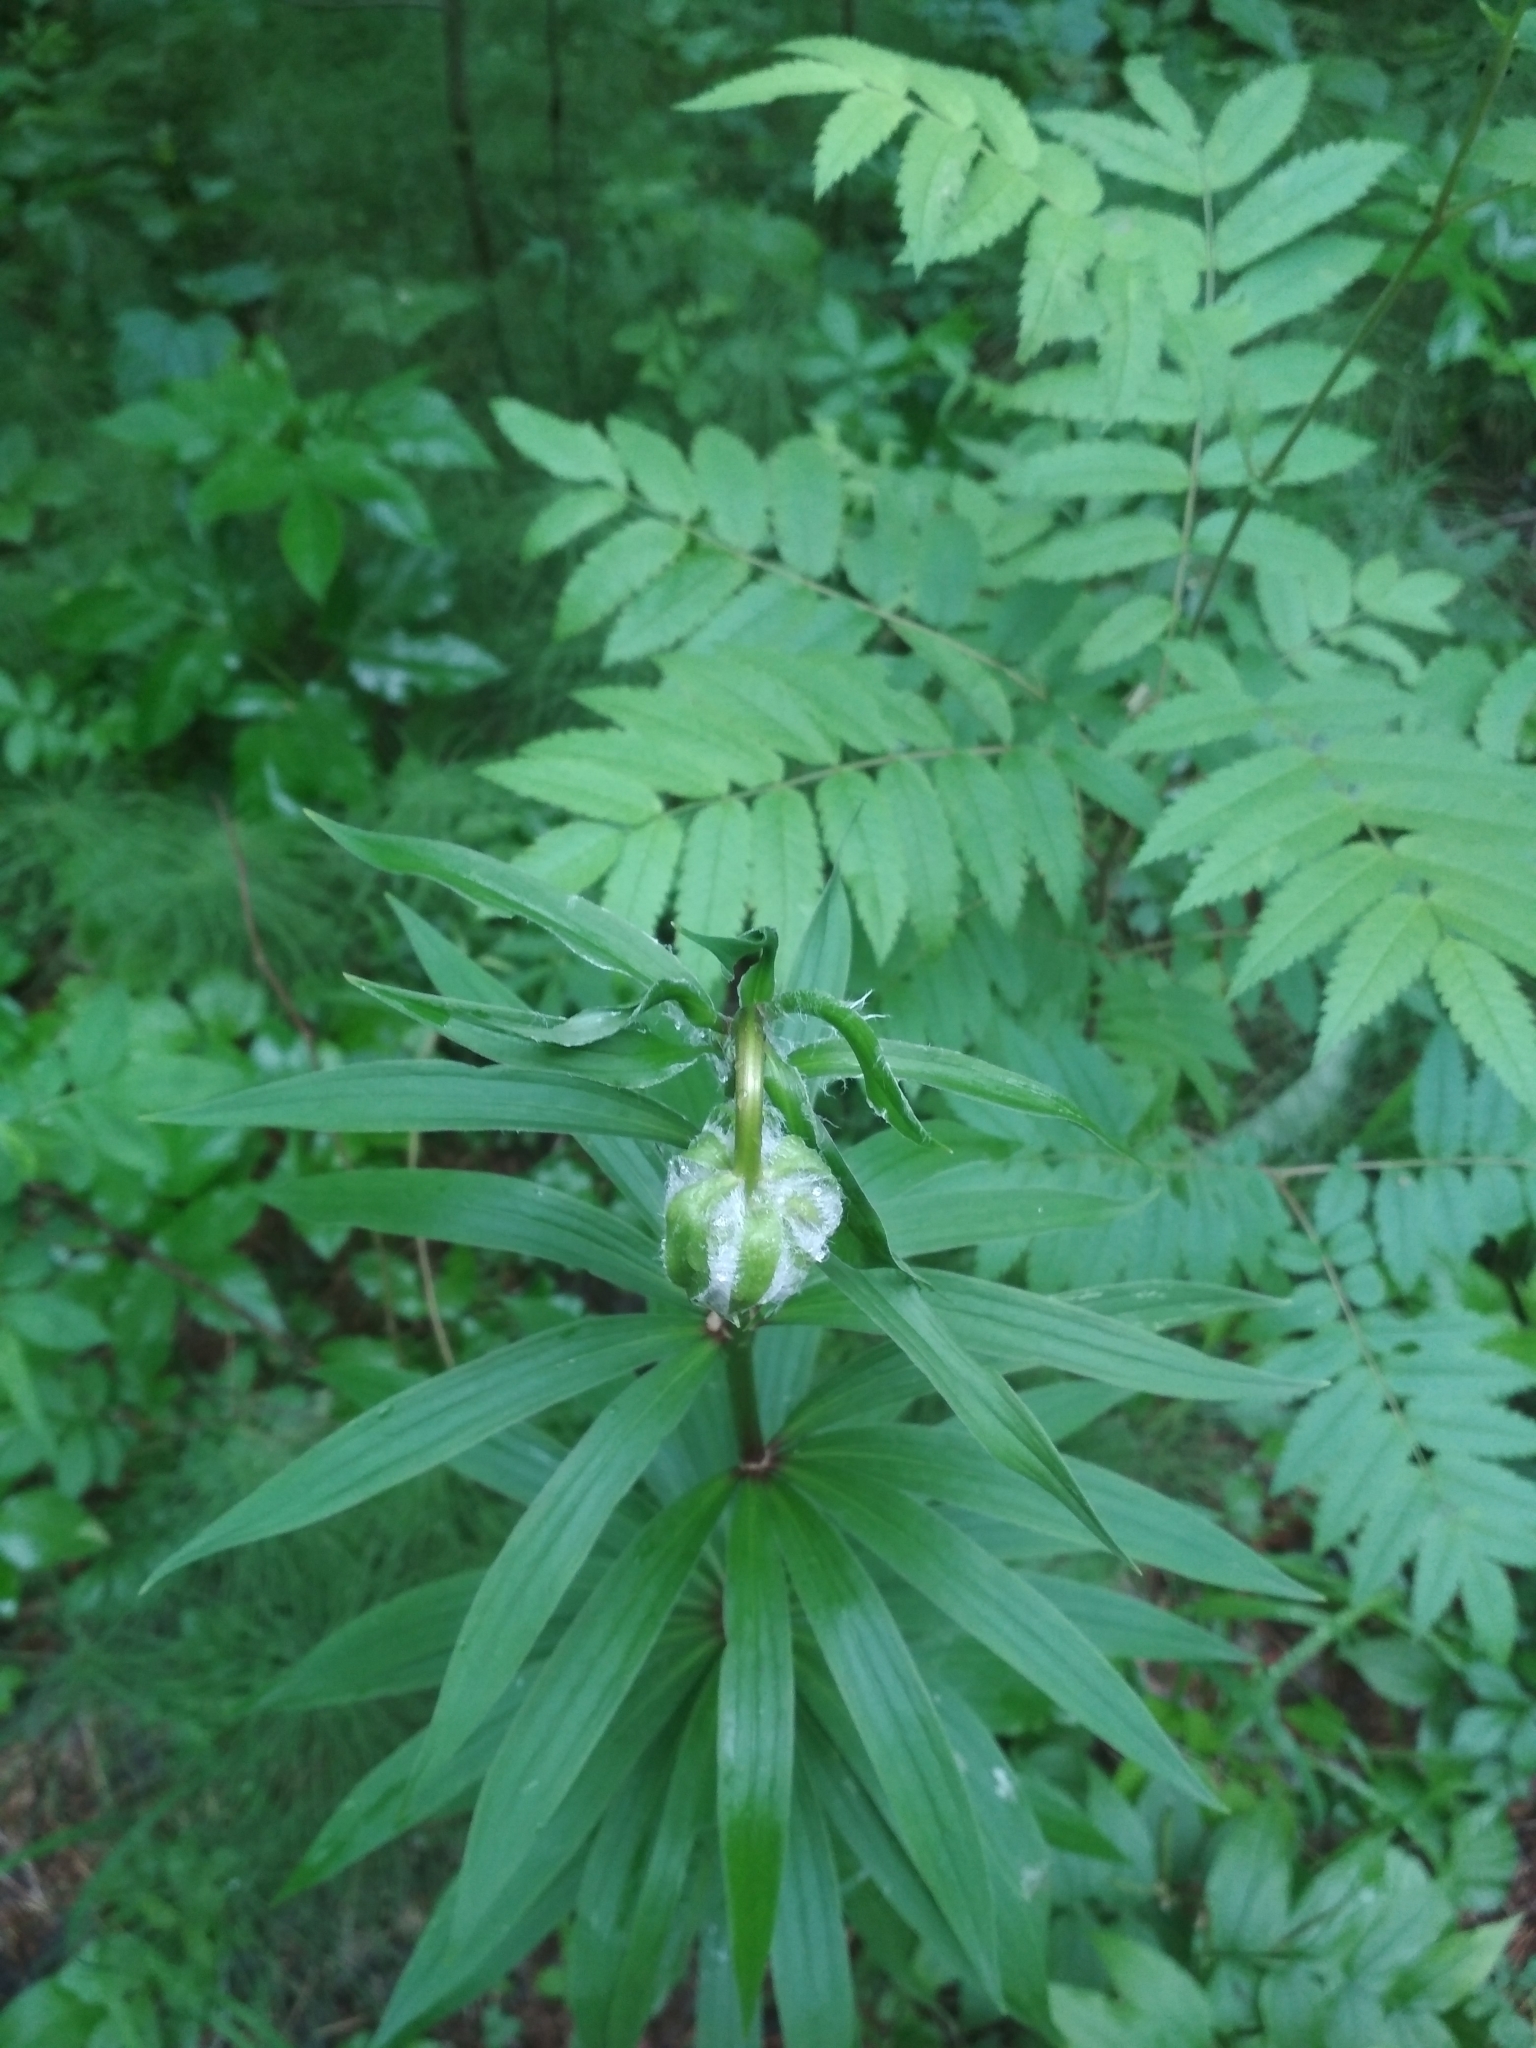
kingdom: Plantae
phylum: Tracheophyta
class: Liliopsida
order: Liliales
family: Liliaceae
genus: Lilium
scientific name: Lilium martagon
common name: Martagon lily
